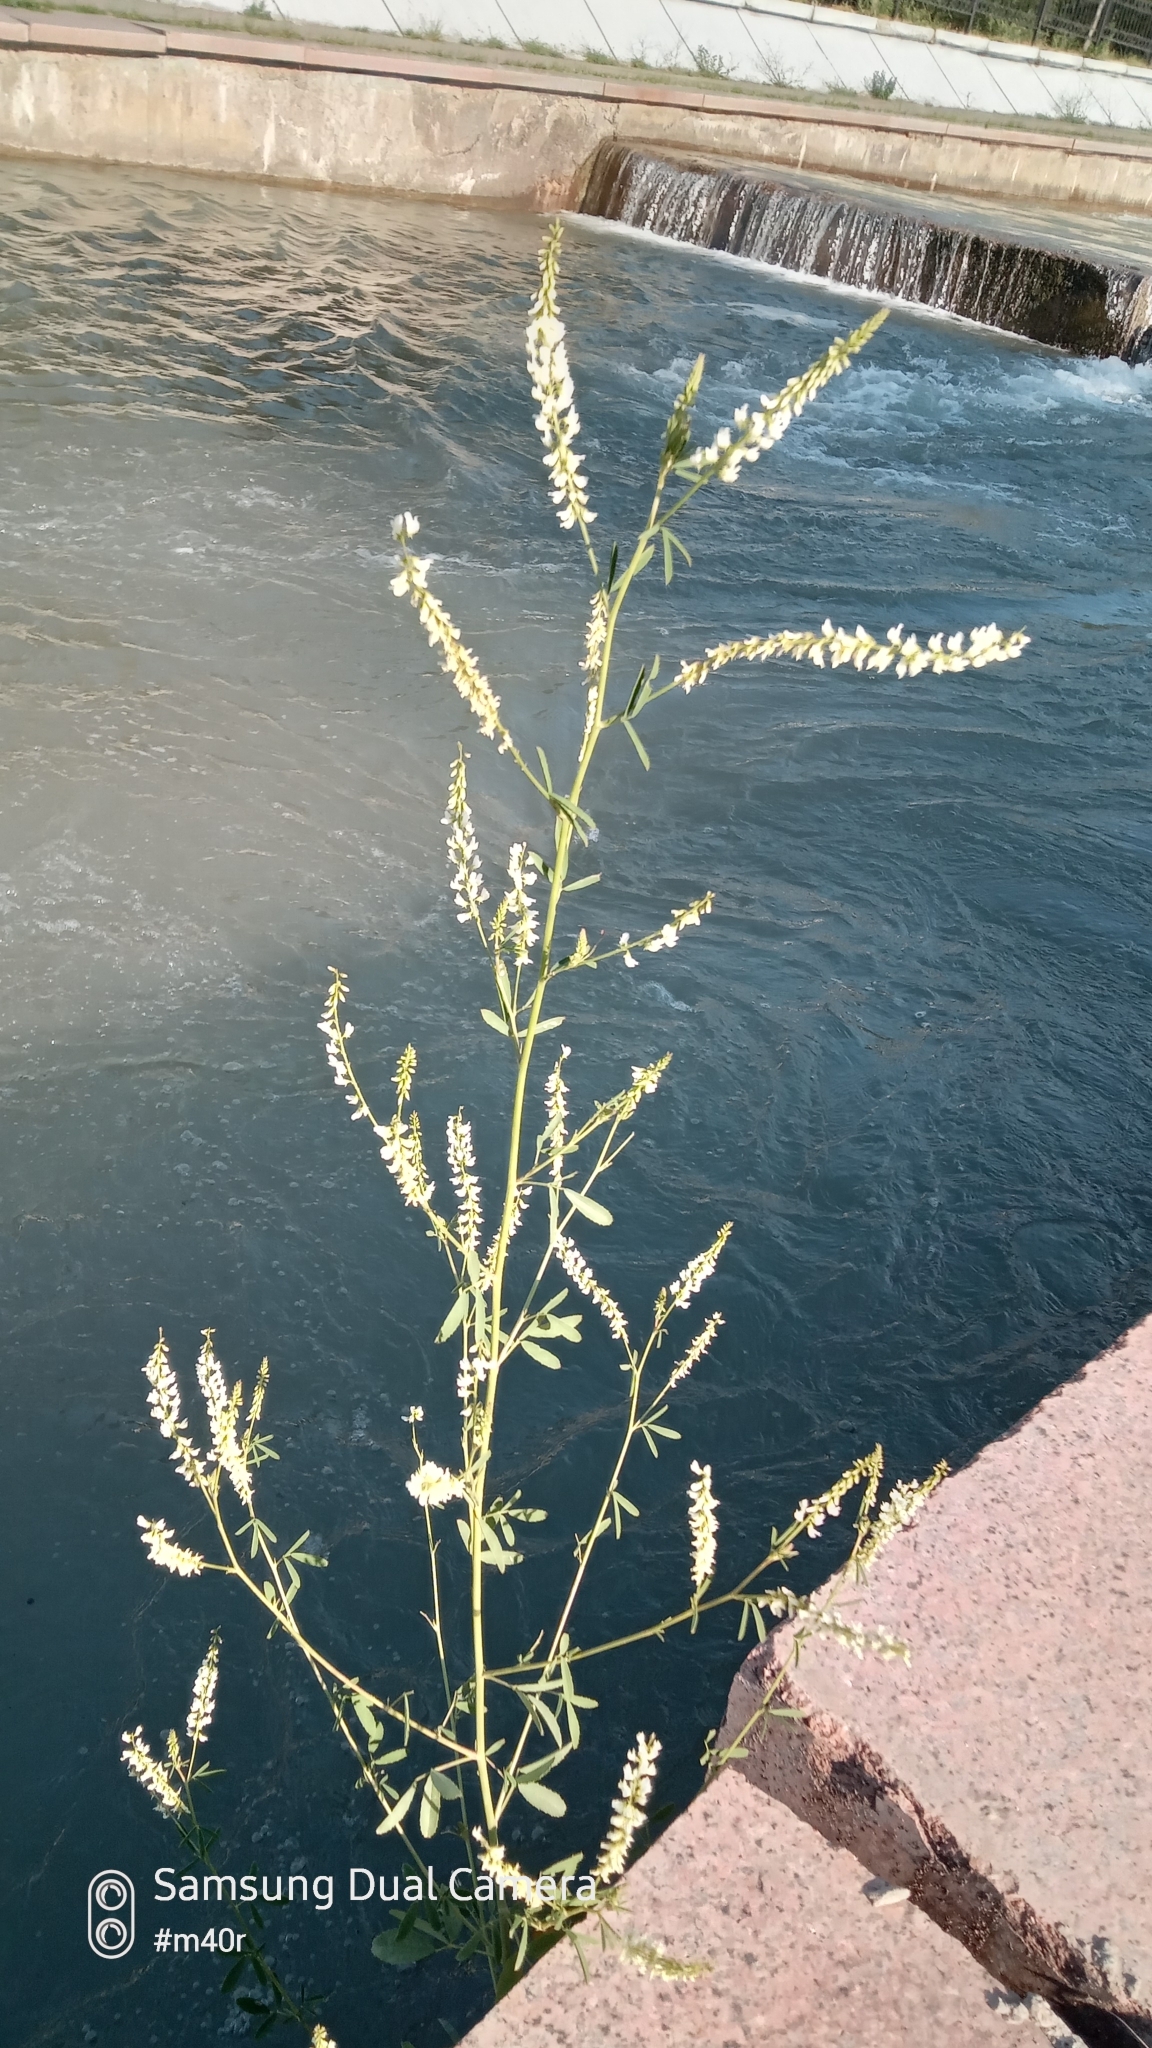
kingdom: Plantae
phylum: Tracheophyta
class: Magnoliopsida
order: Fabales
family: Fabaceae
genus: Melilotus
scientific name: Melilotus albus
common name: White melilot
